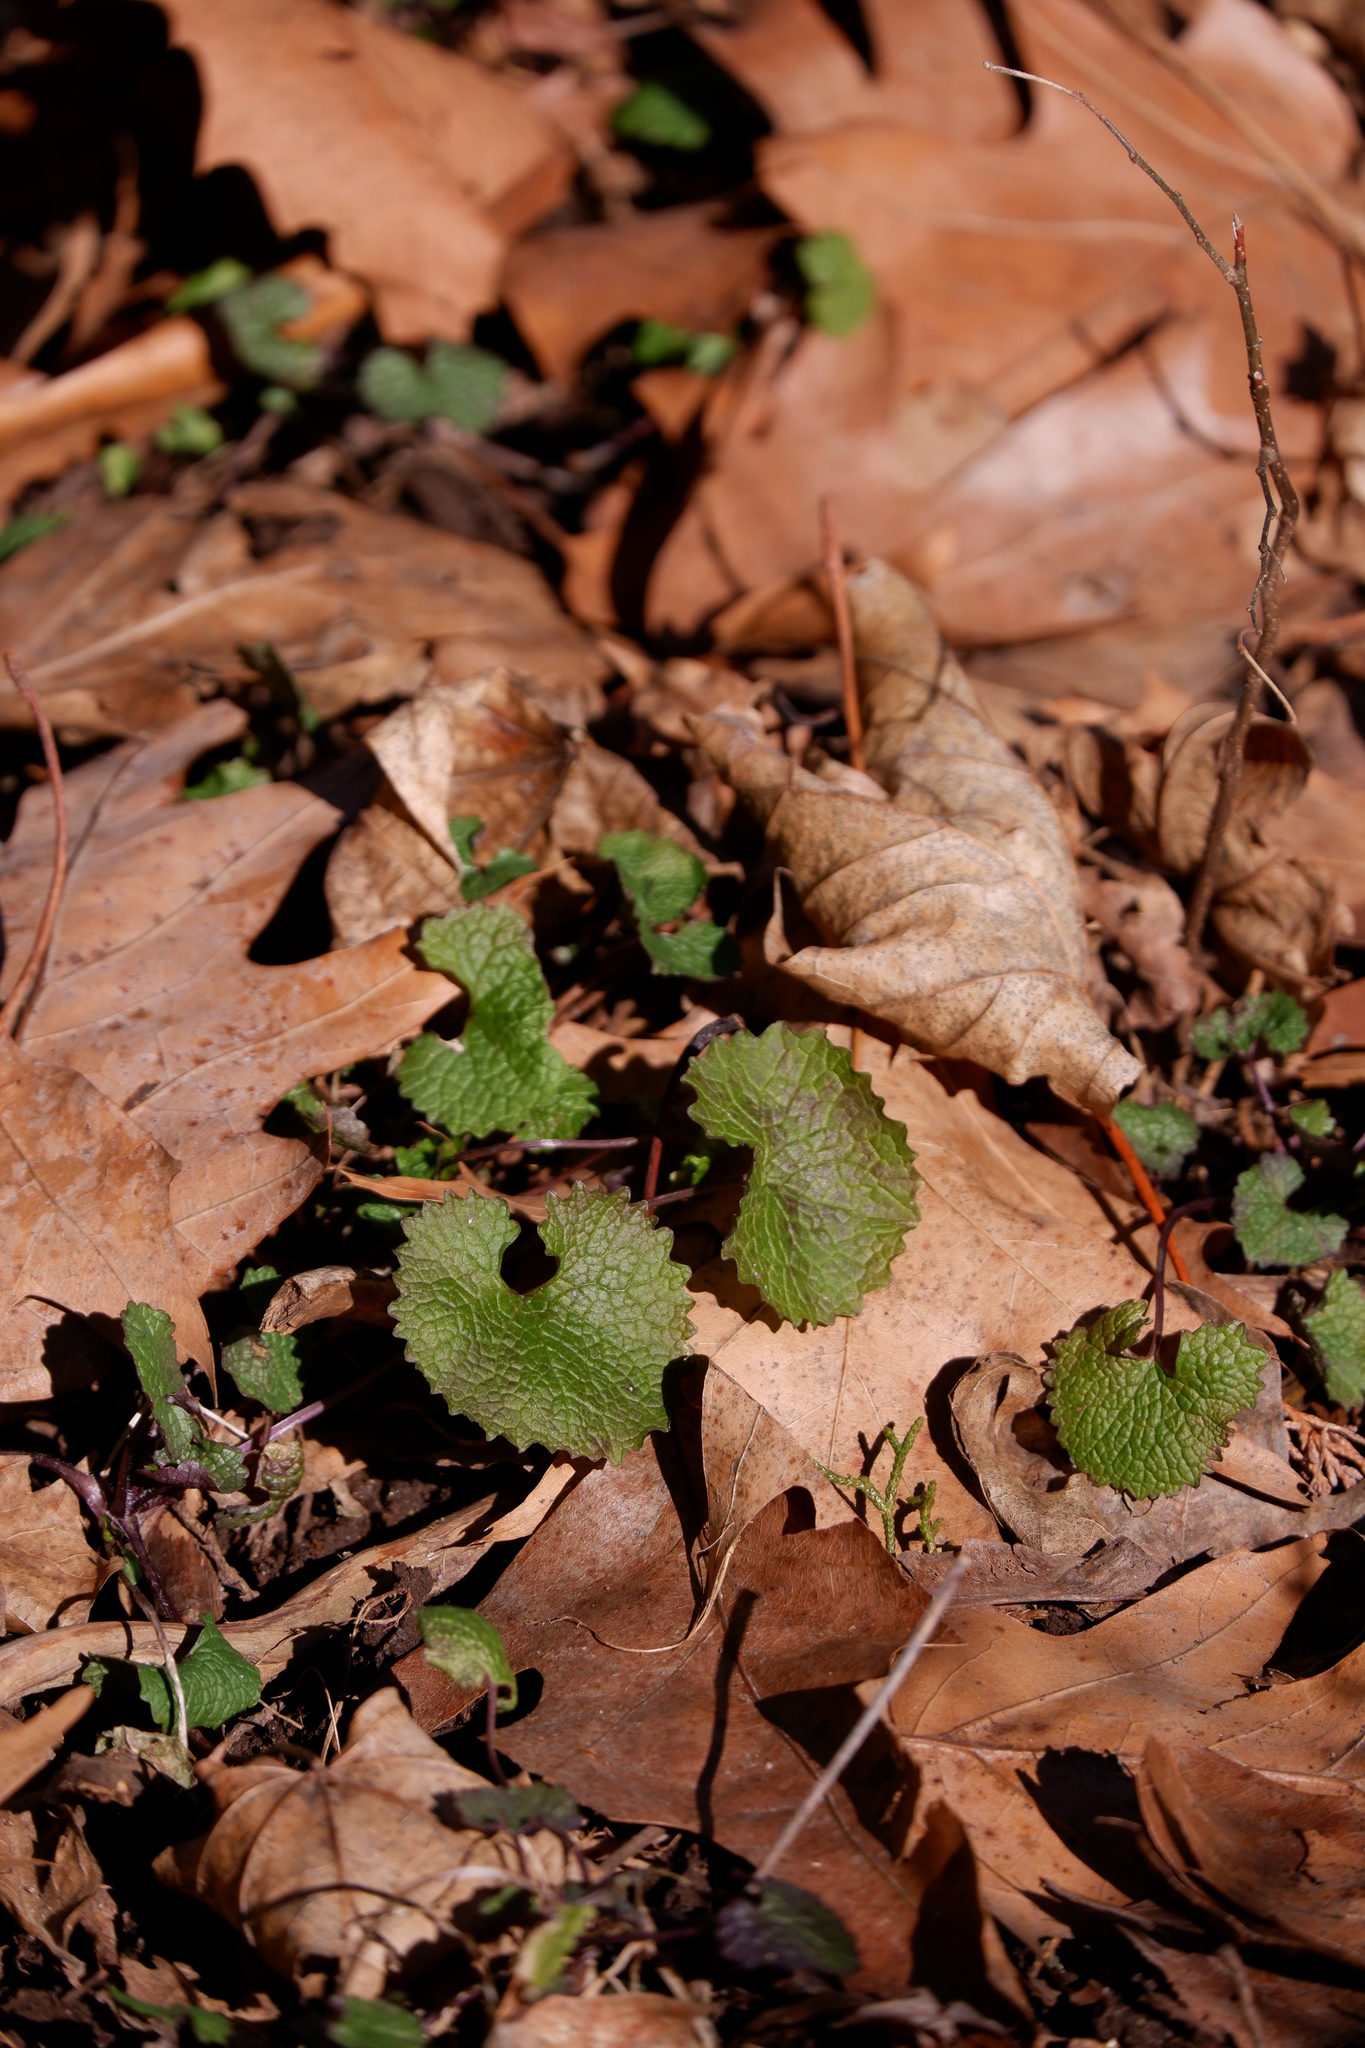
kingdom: Plantae
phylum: Tracheophyta
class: Magnoliopsida
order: Brassicales
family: Brassicaceae
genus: Alliaria
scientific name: Alliaria petiolata
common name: Garlic mustard
